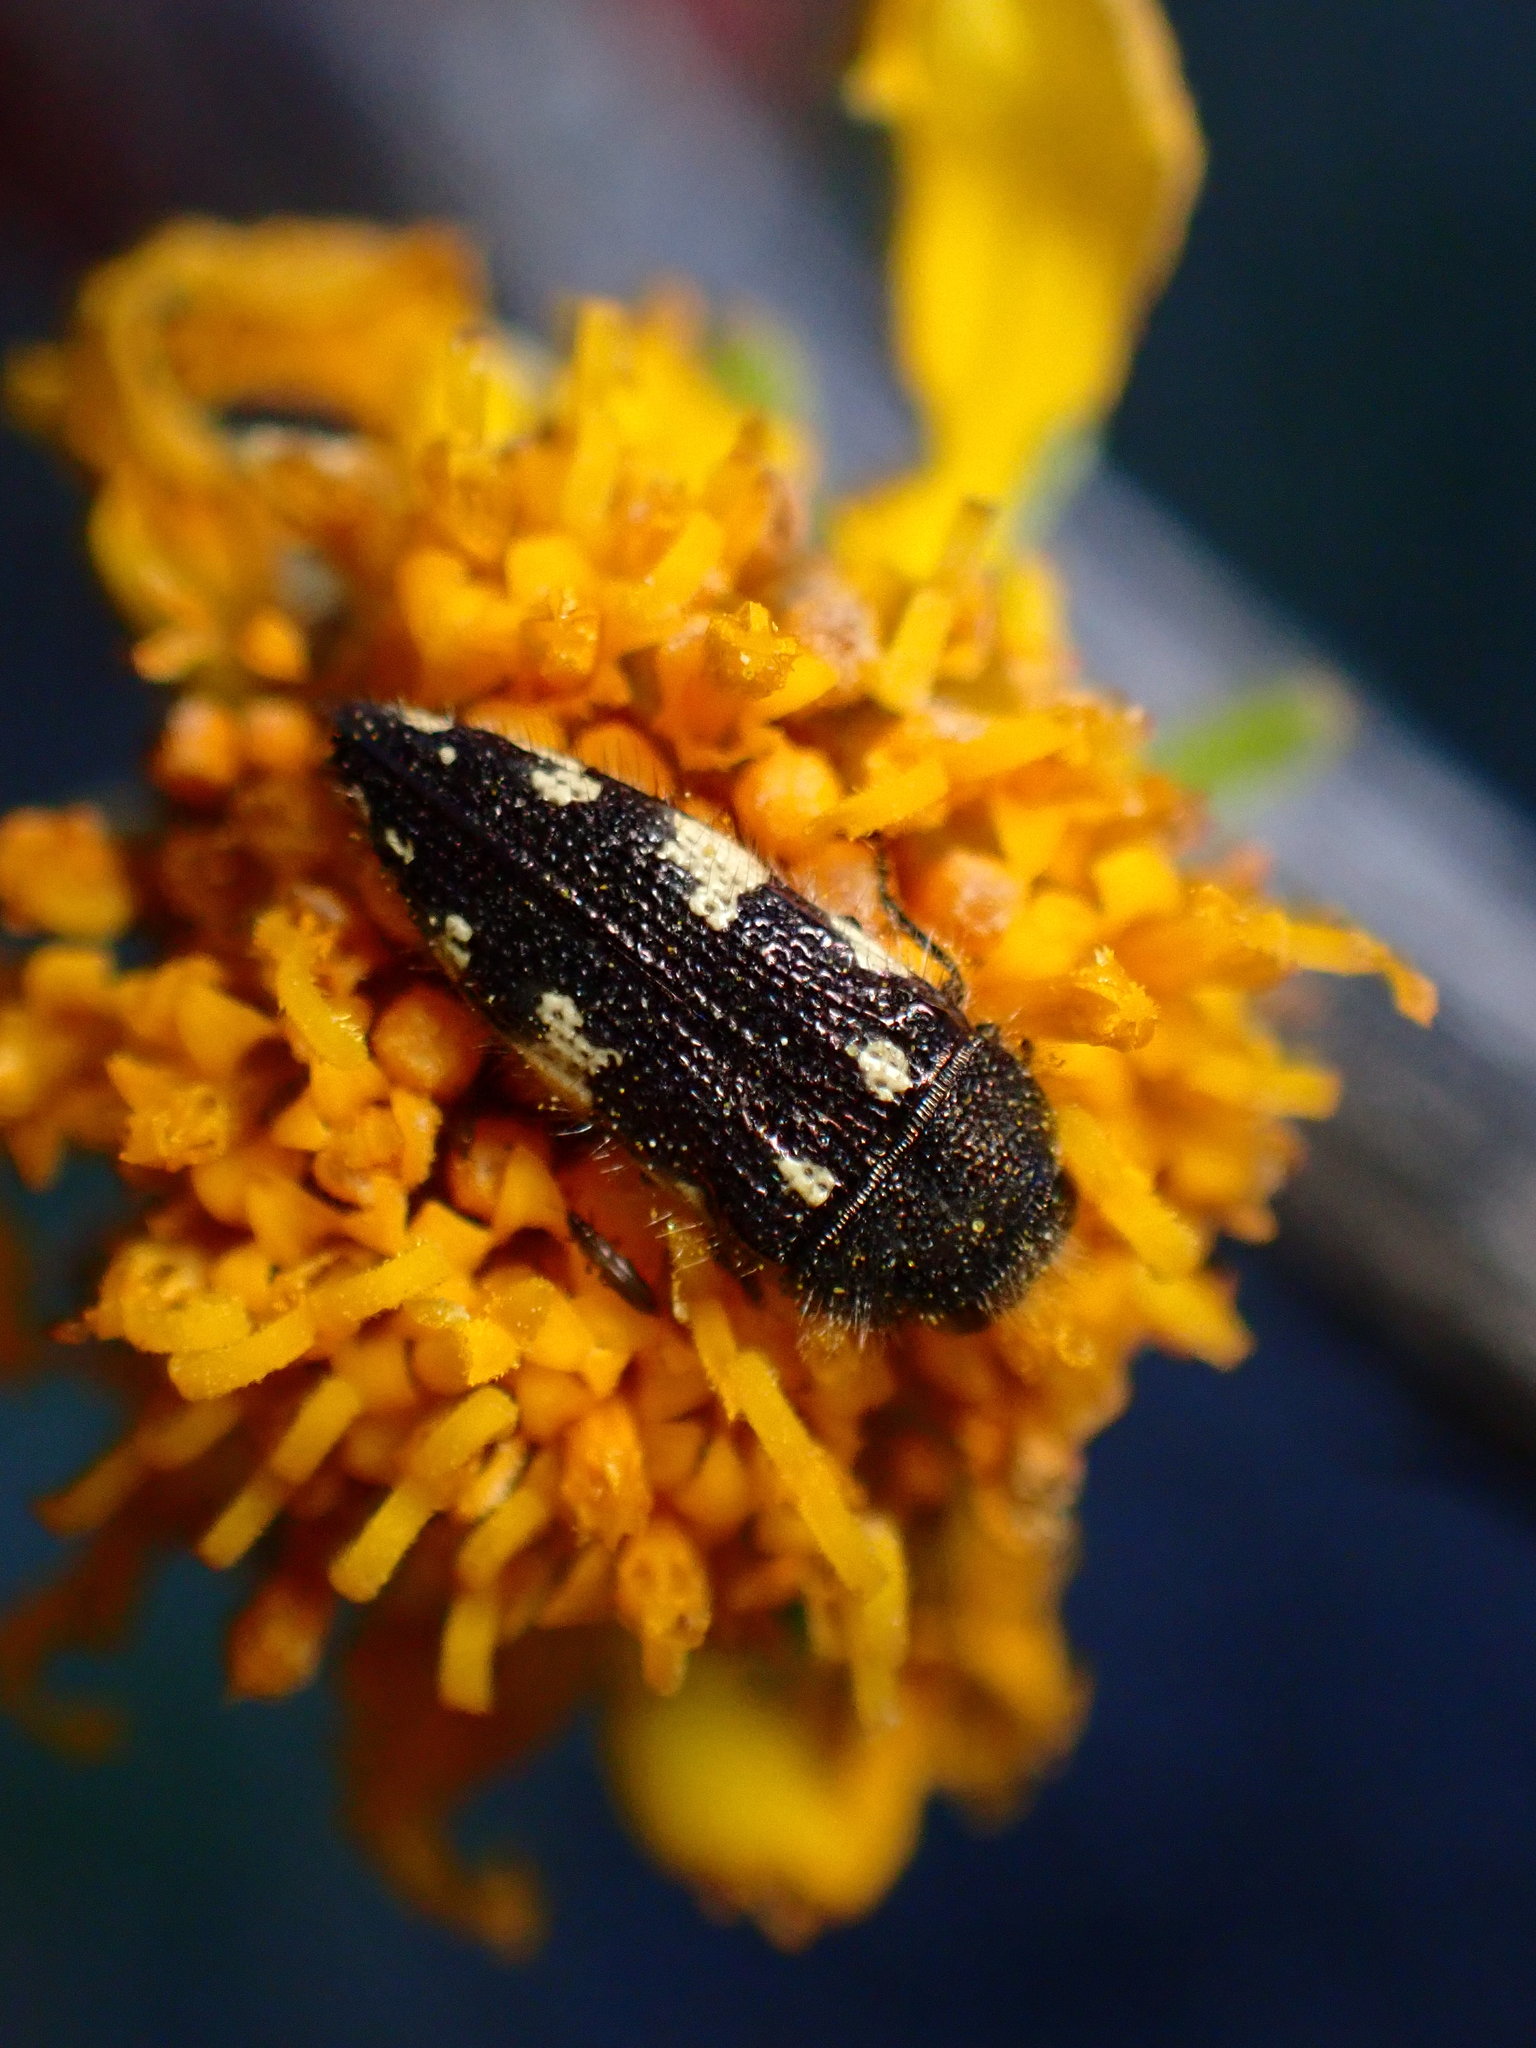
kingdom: Animalia
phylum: Arthropoda
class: Insecta
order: Coleoptera
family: Buprestidae
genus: Acmaeodera
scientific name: Acmaeodera vernalis
